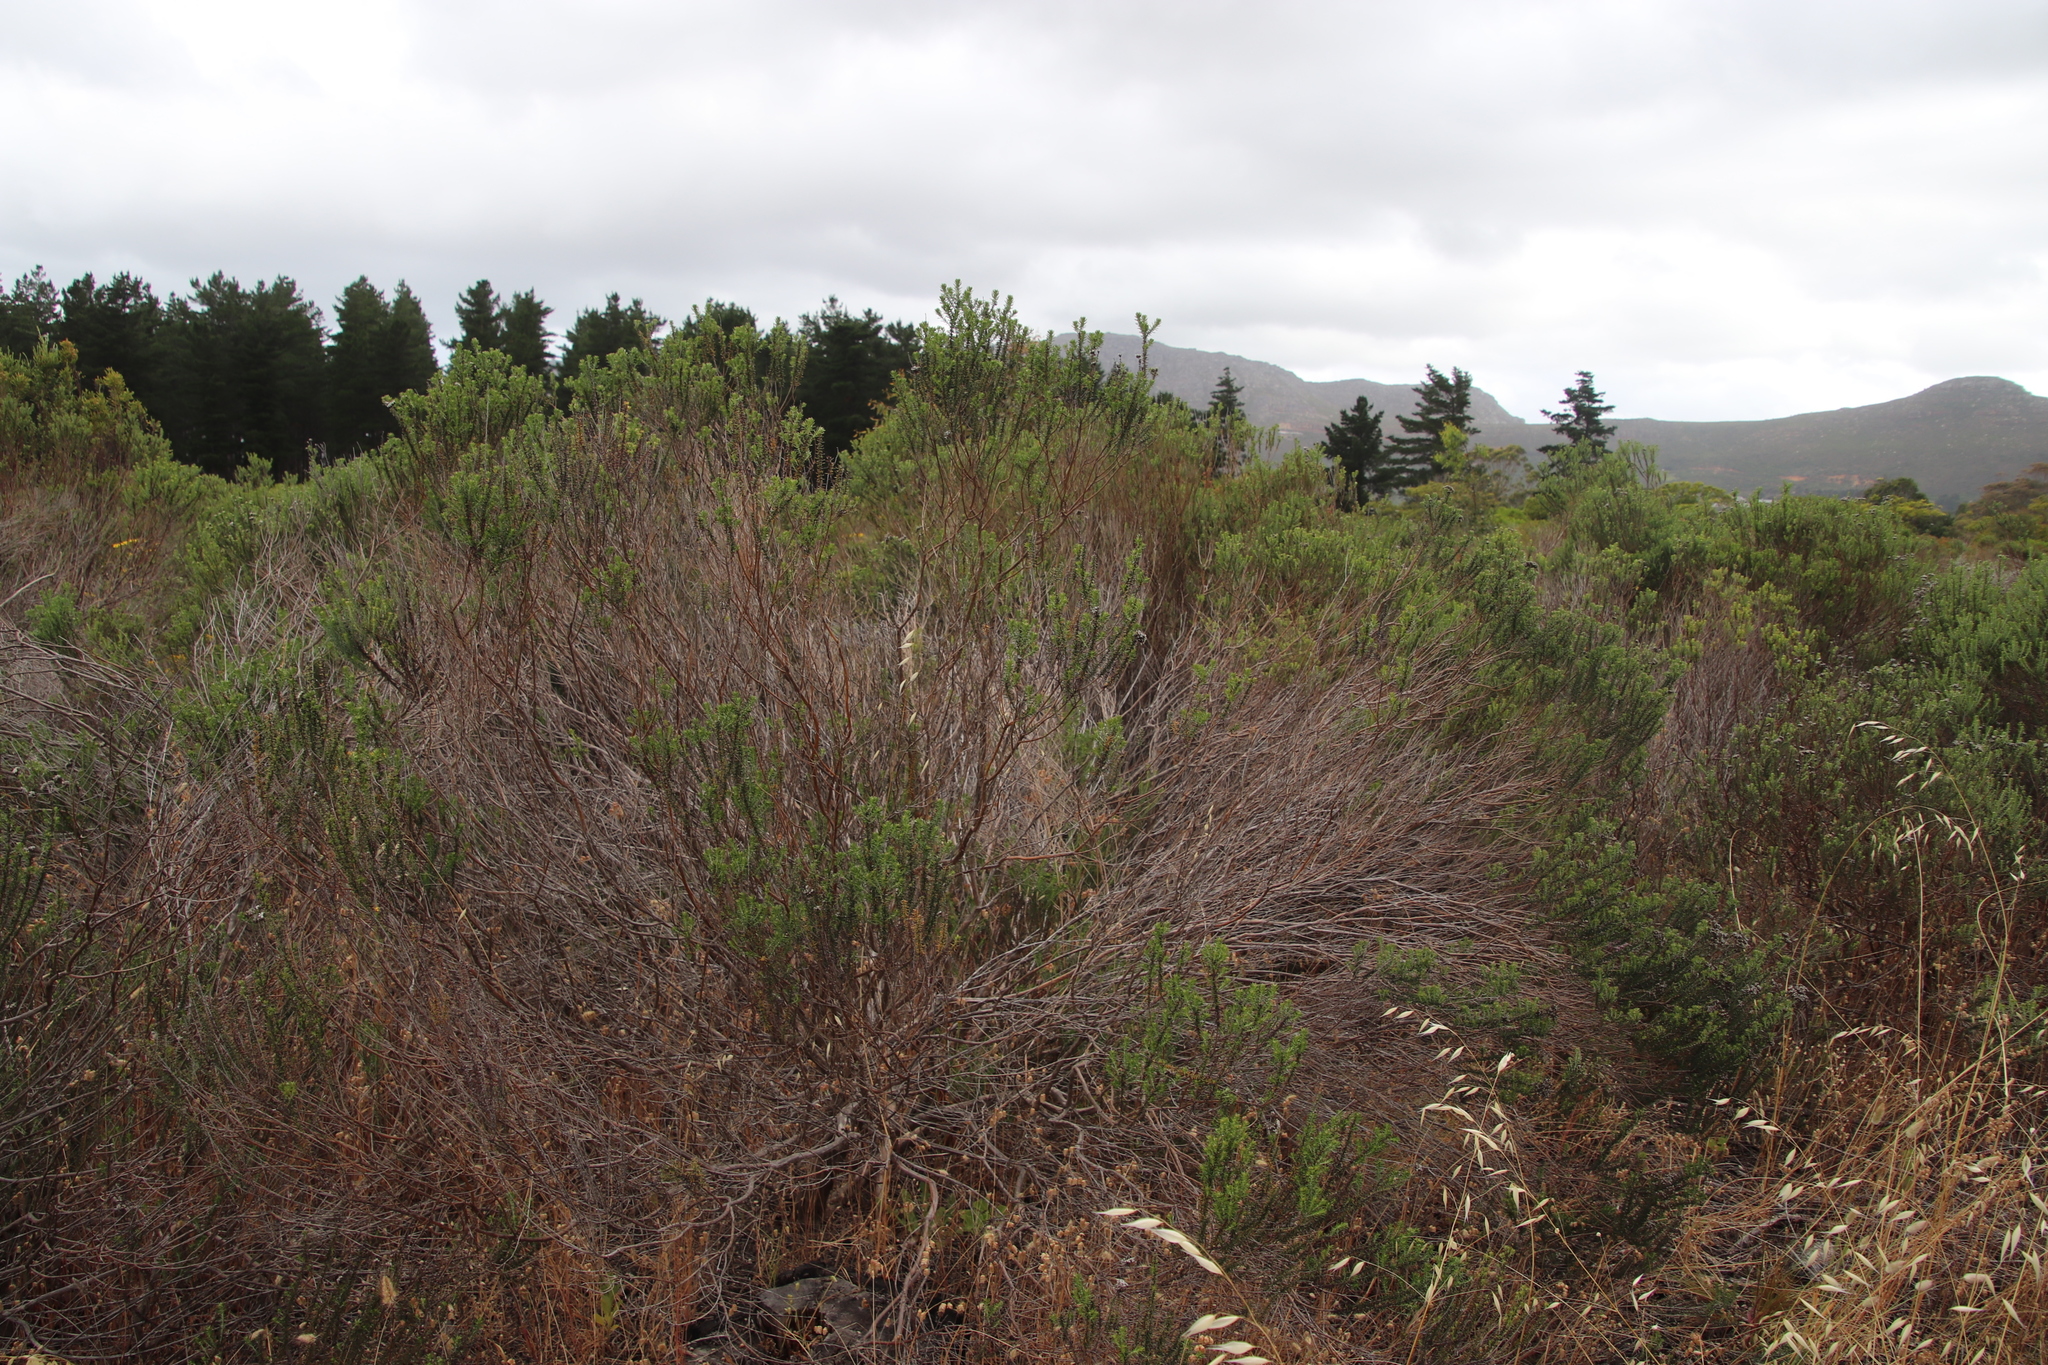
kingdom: Plantae
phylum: Tracheophyta
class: Magnoliopsida
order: Asterales
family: Asteraceae
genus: Metalasia
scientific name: Metalasia densa
